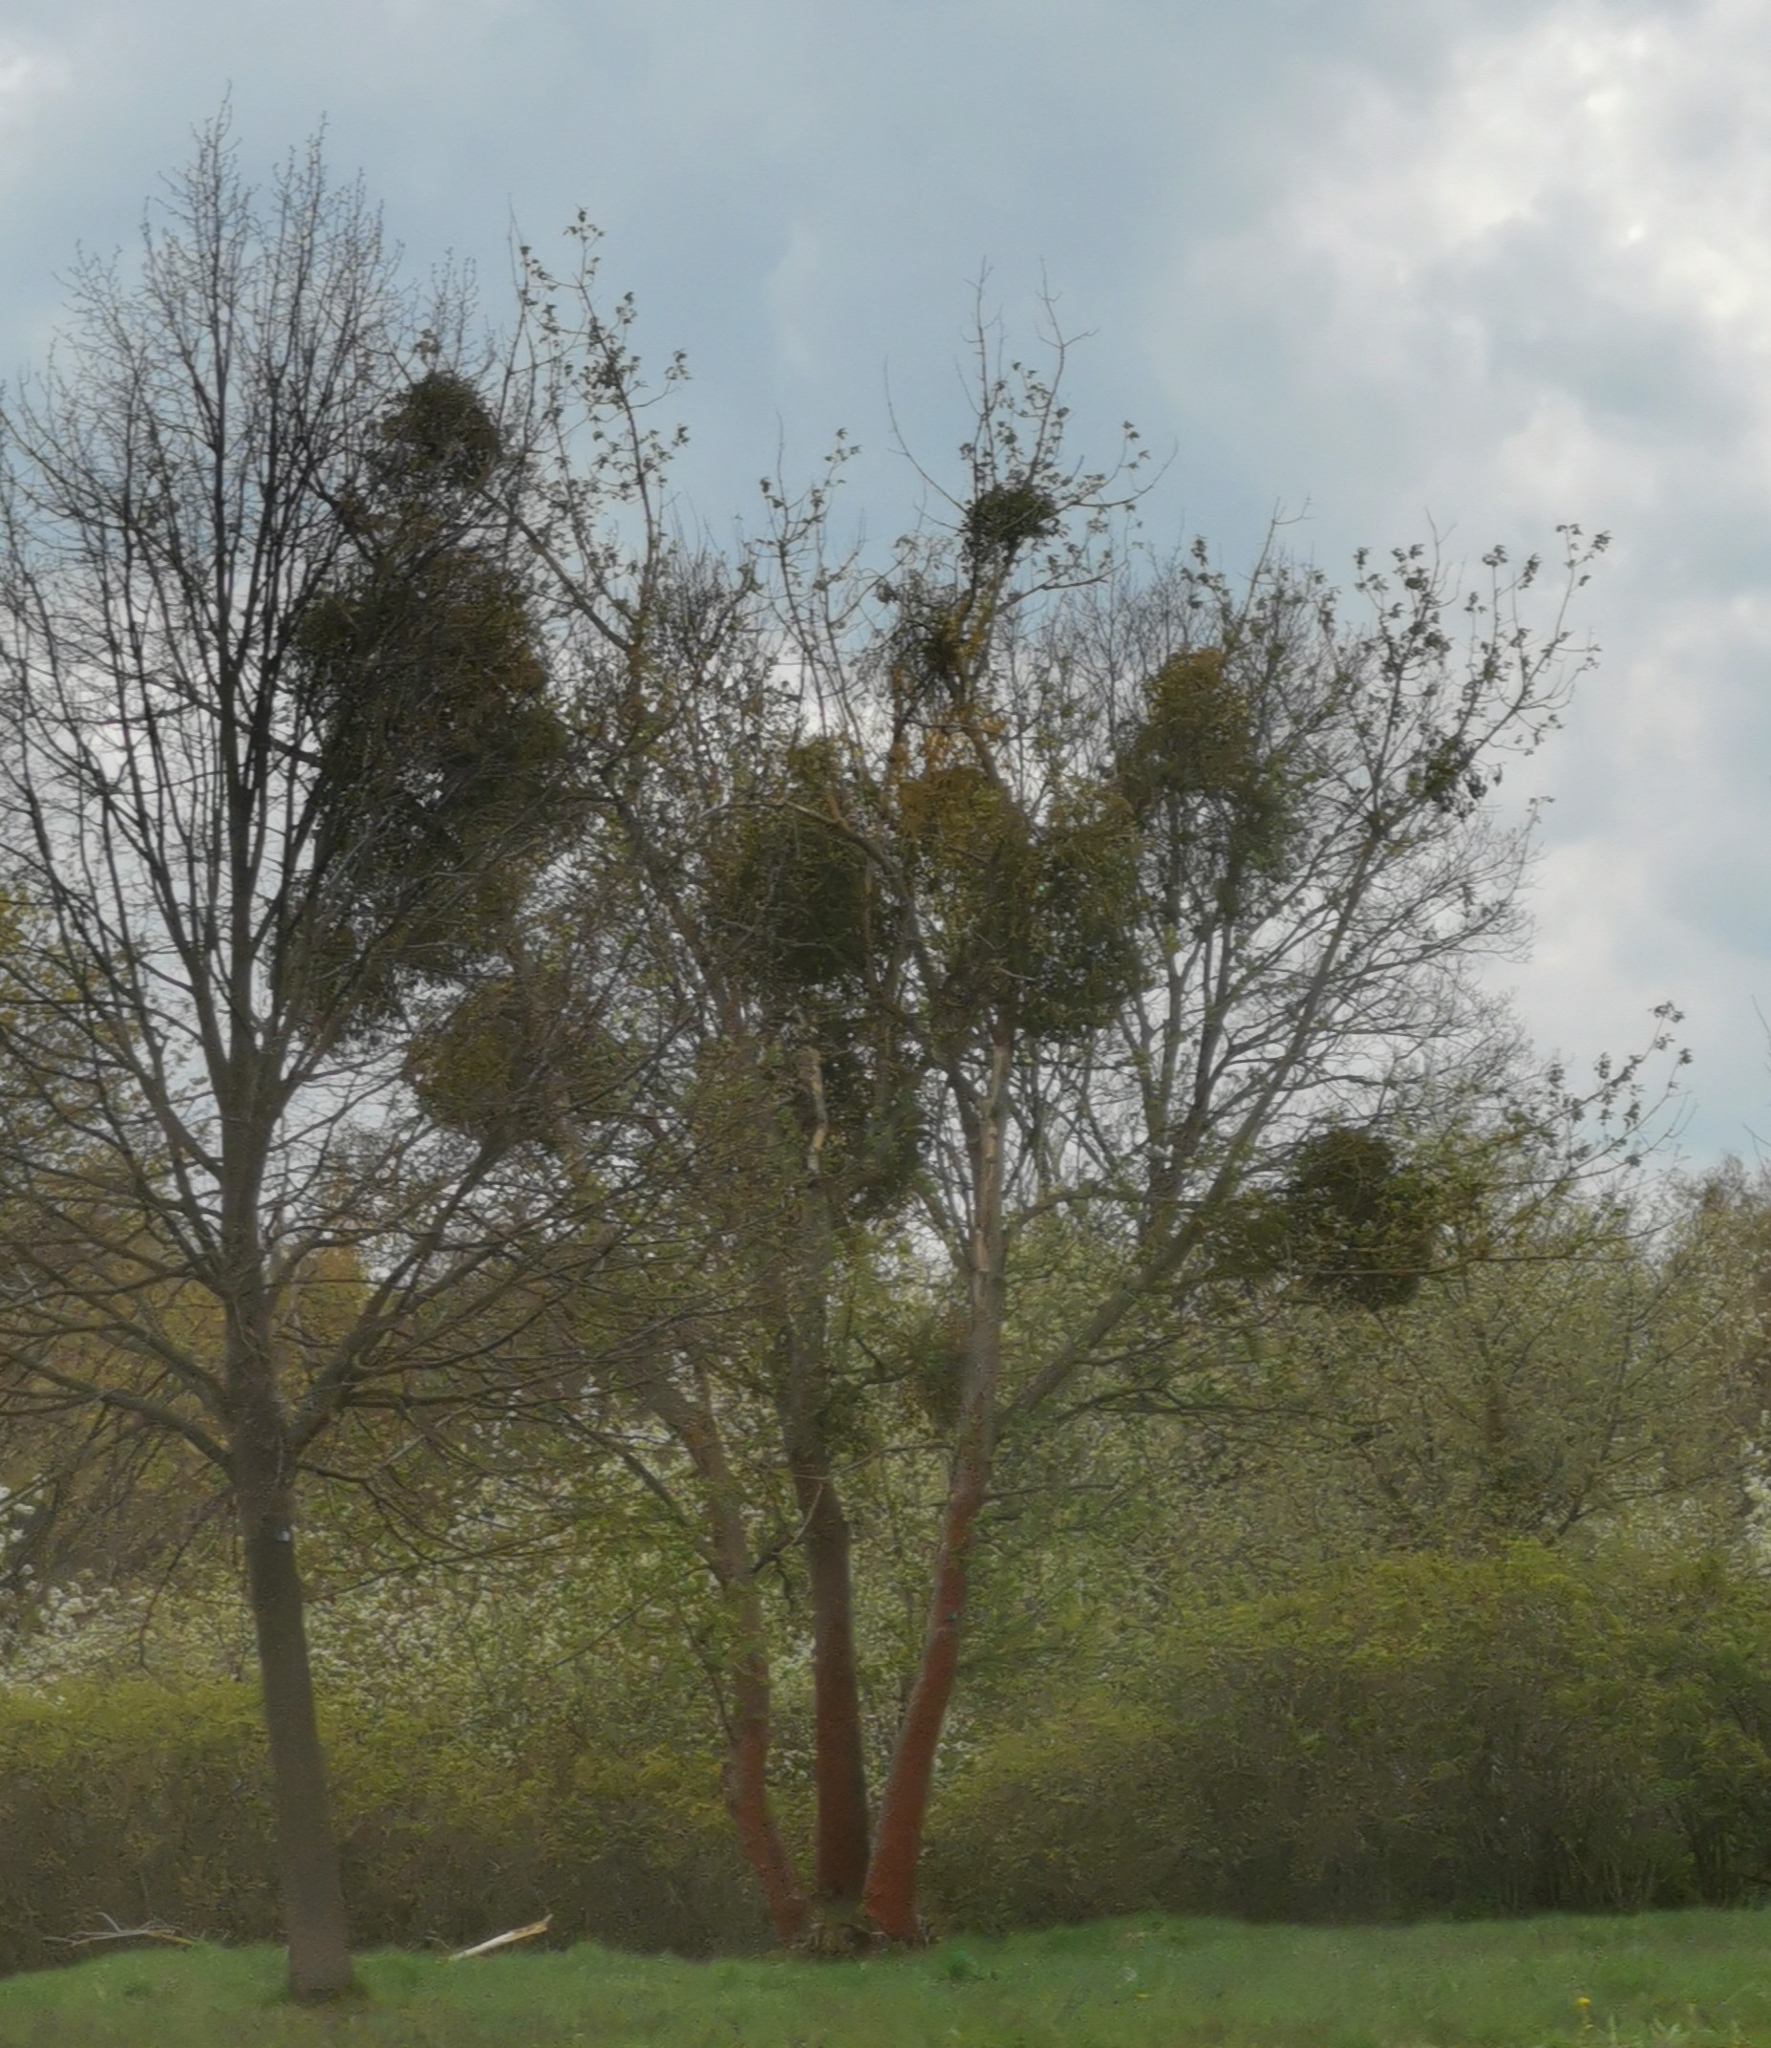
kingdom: Plantae
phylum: Tracheophyta
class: Magnoliopsida
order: Santalales
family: Viscaceae
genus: Viscum
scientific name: Viscum album
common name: Mistletoe
